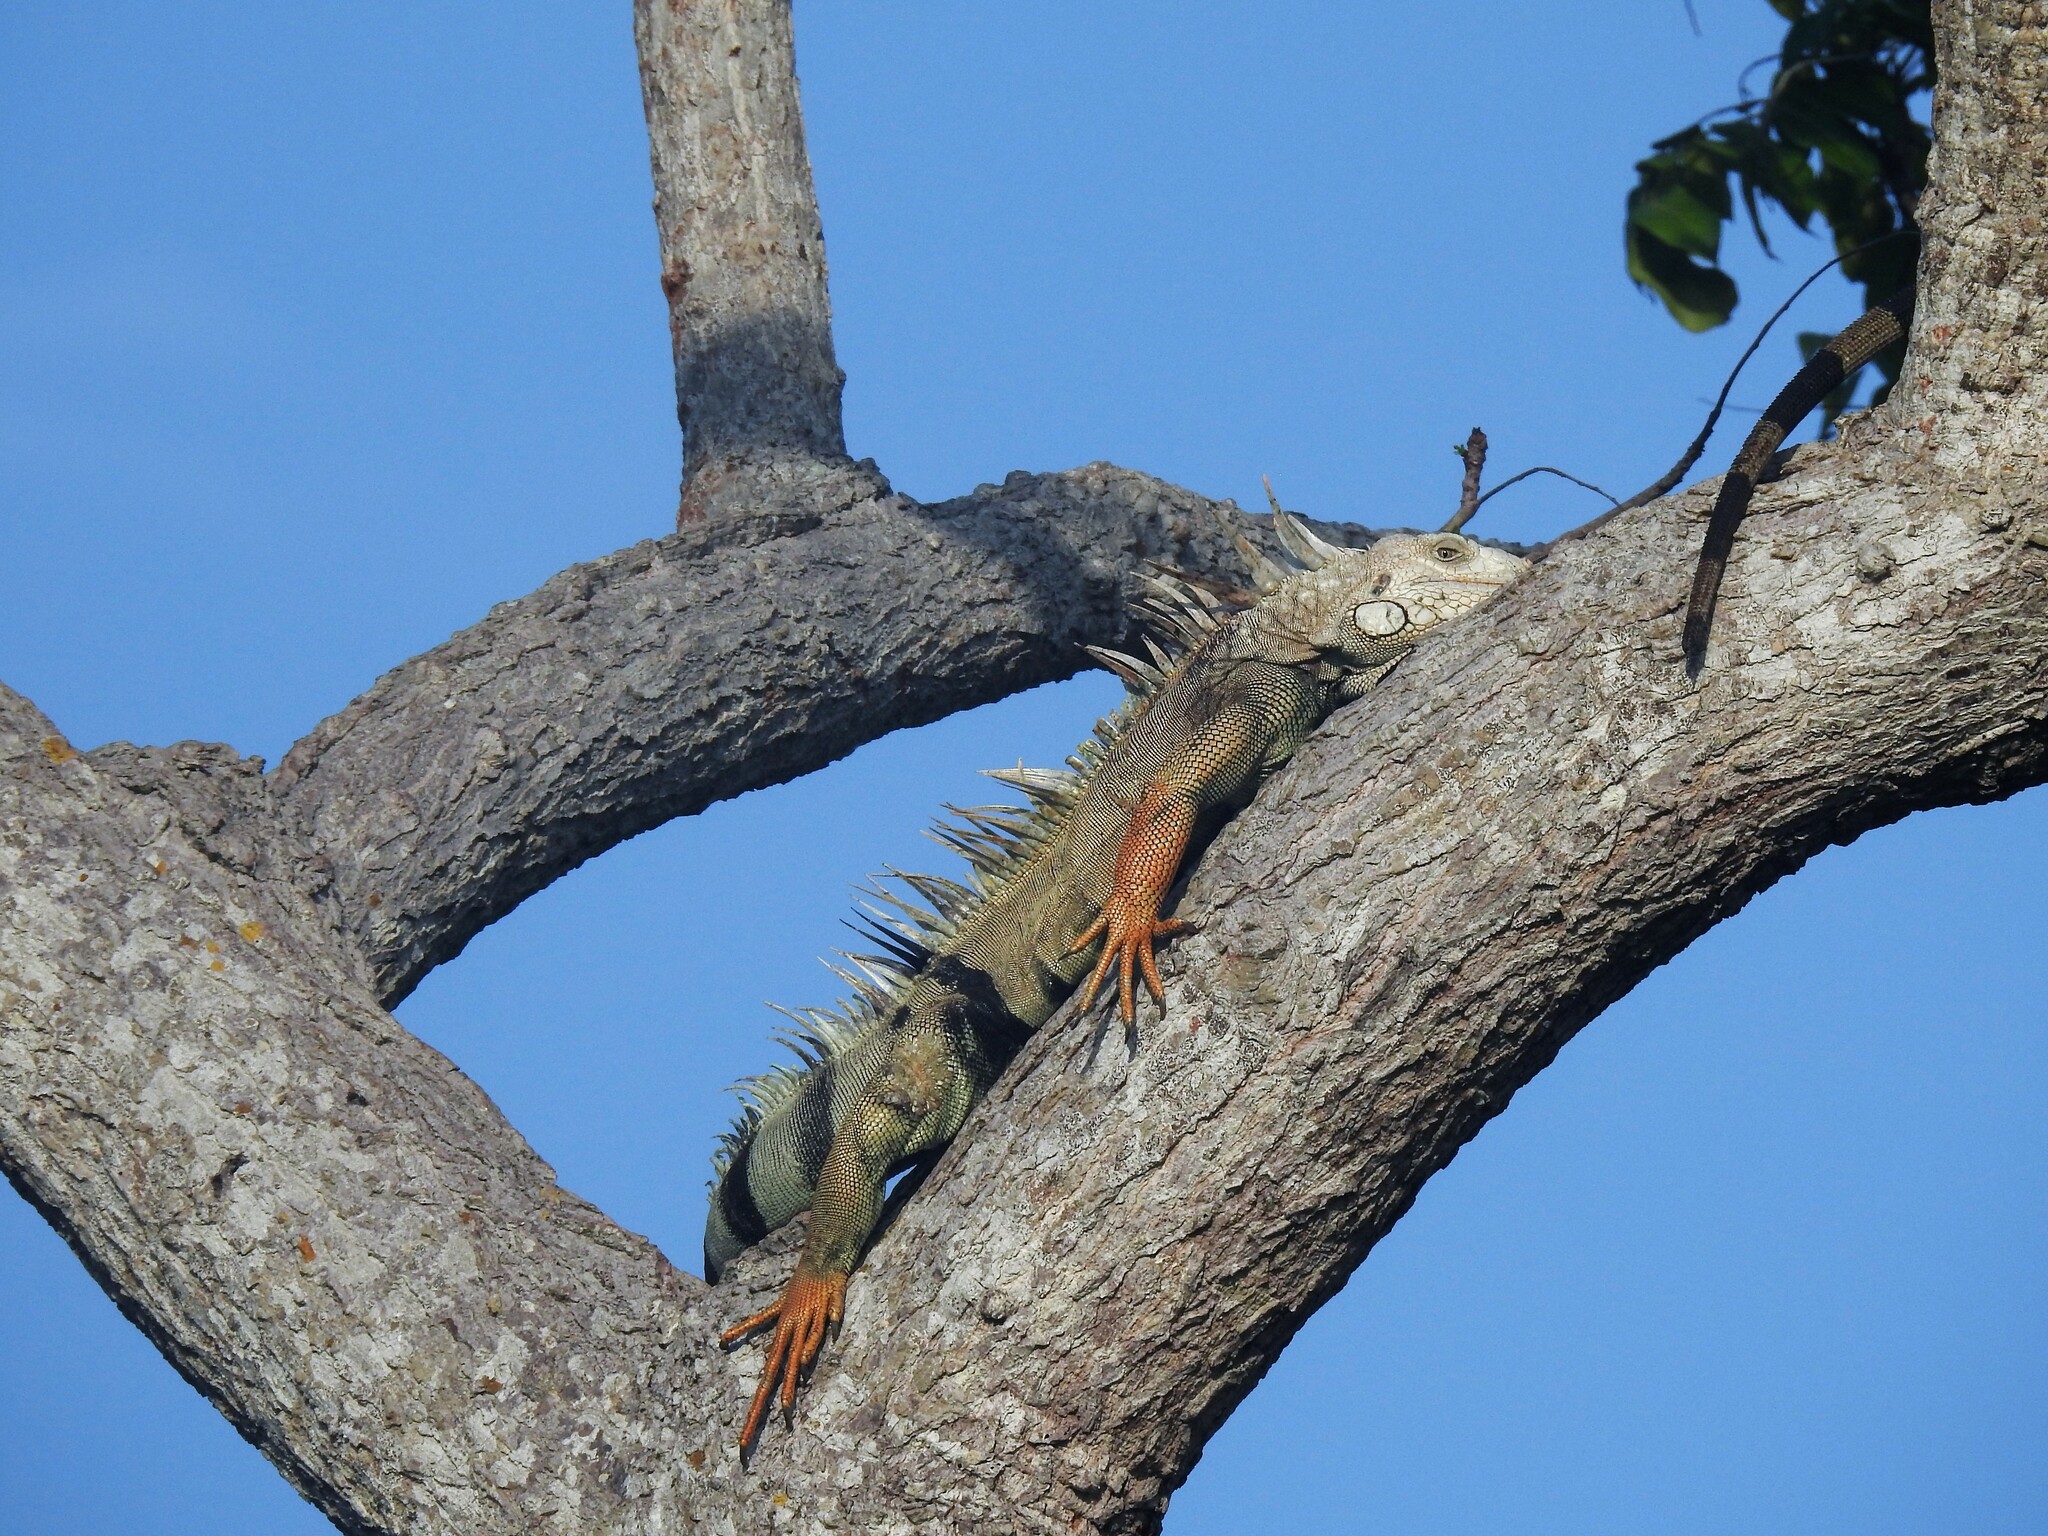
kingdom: Animalia
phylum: Chordata
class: Squamata
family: Iguanidae
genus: Iguana
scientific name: Iguana iguana
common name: Green iguana
